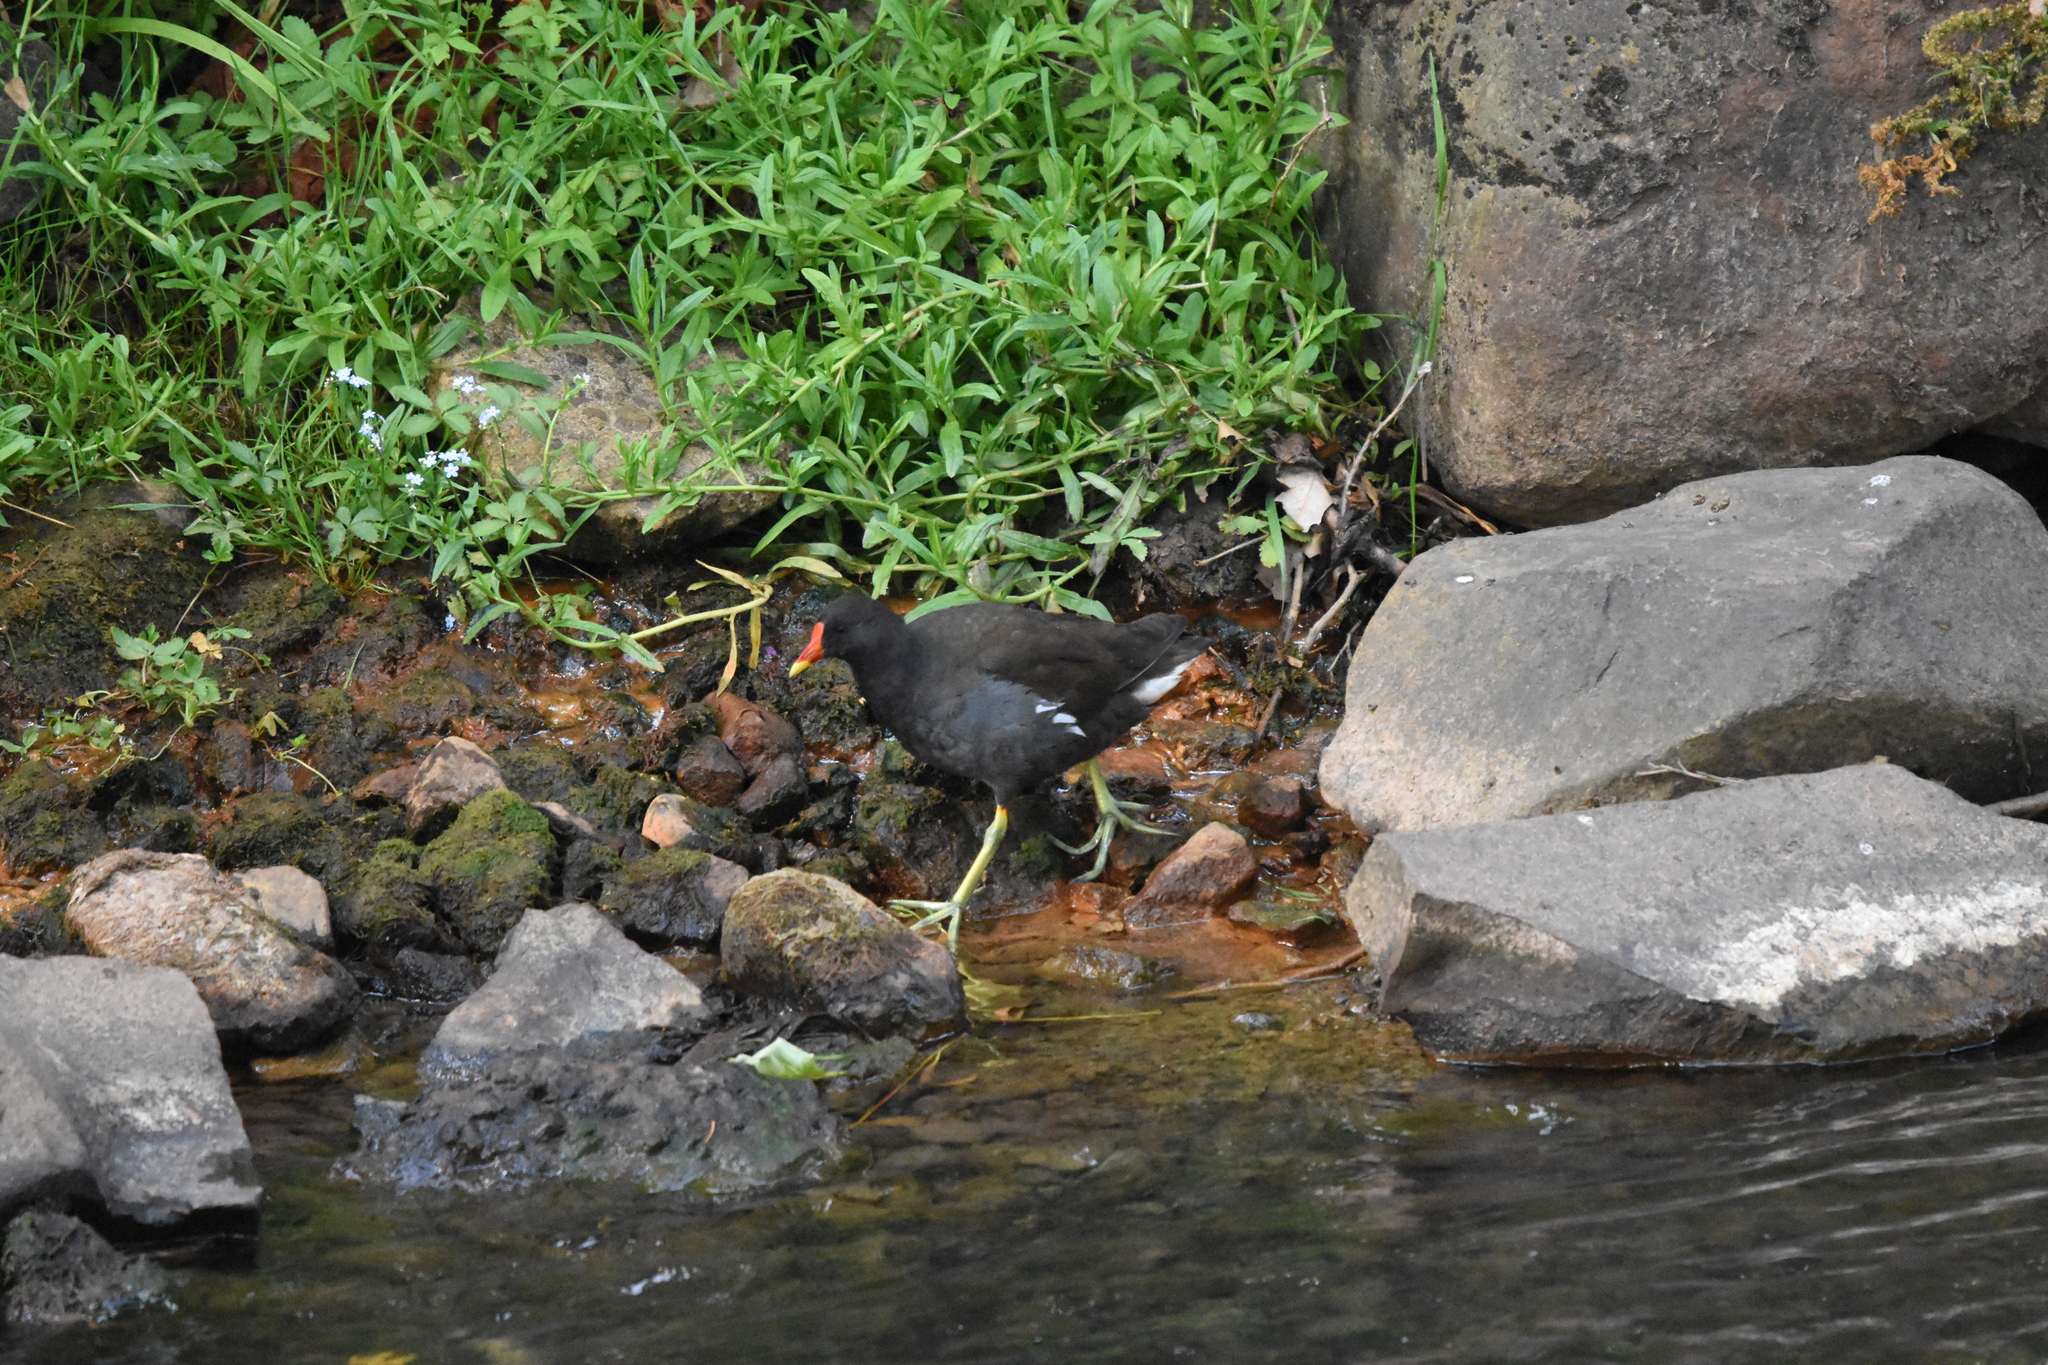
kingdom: Animalia
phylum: Chordata
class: Aves
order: Gruiformes
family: Rallidae
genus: Gallinula
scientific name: Gallinula chloropus
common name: Common moorhen
